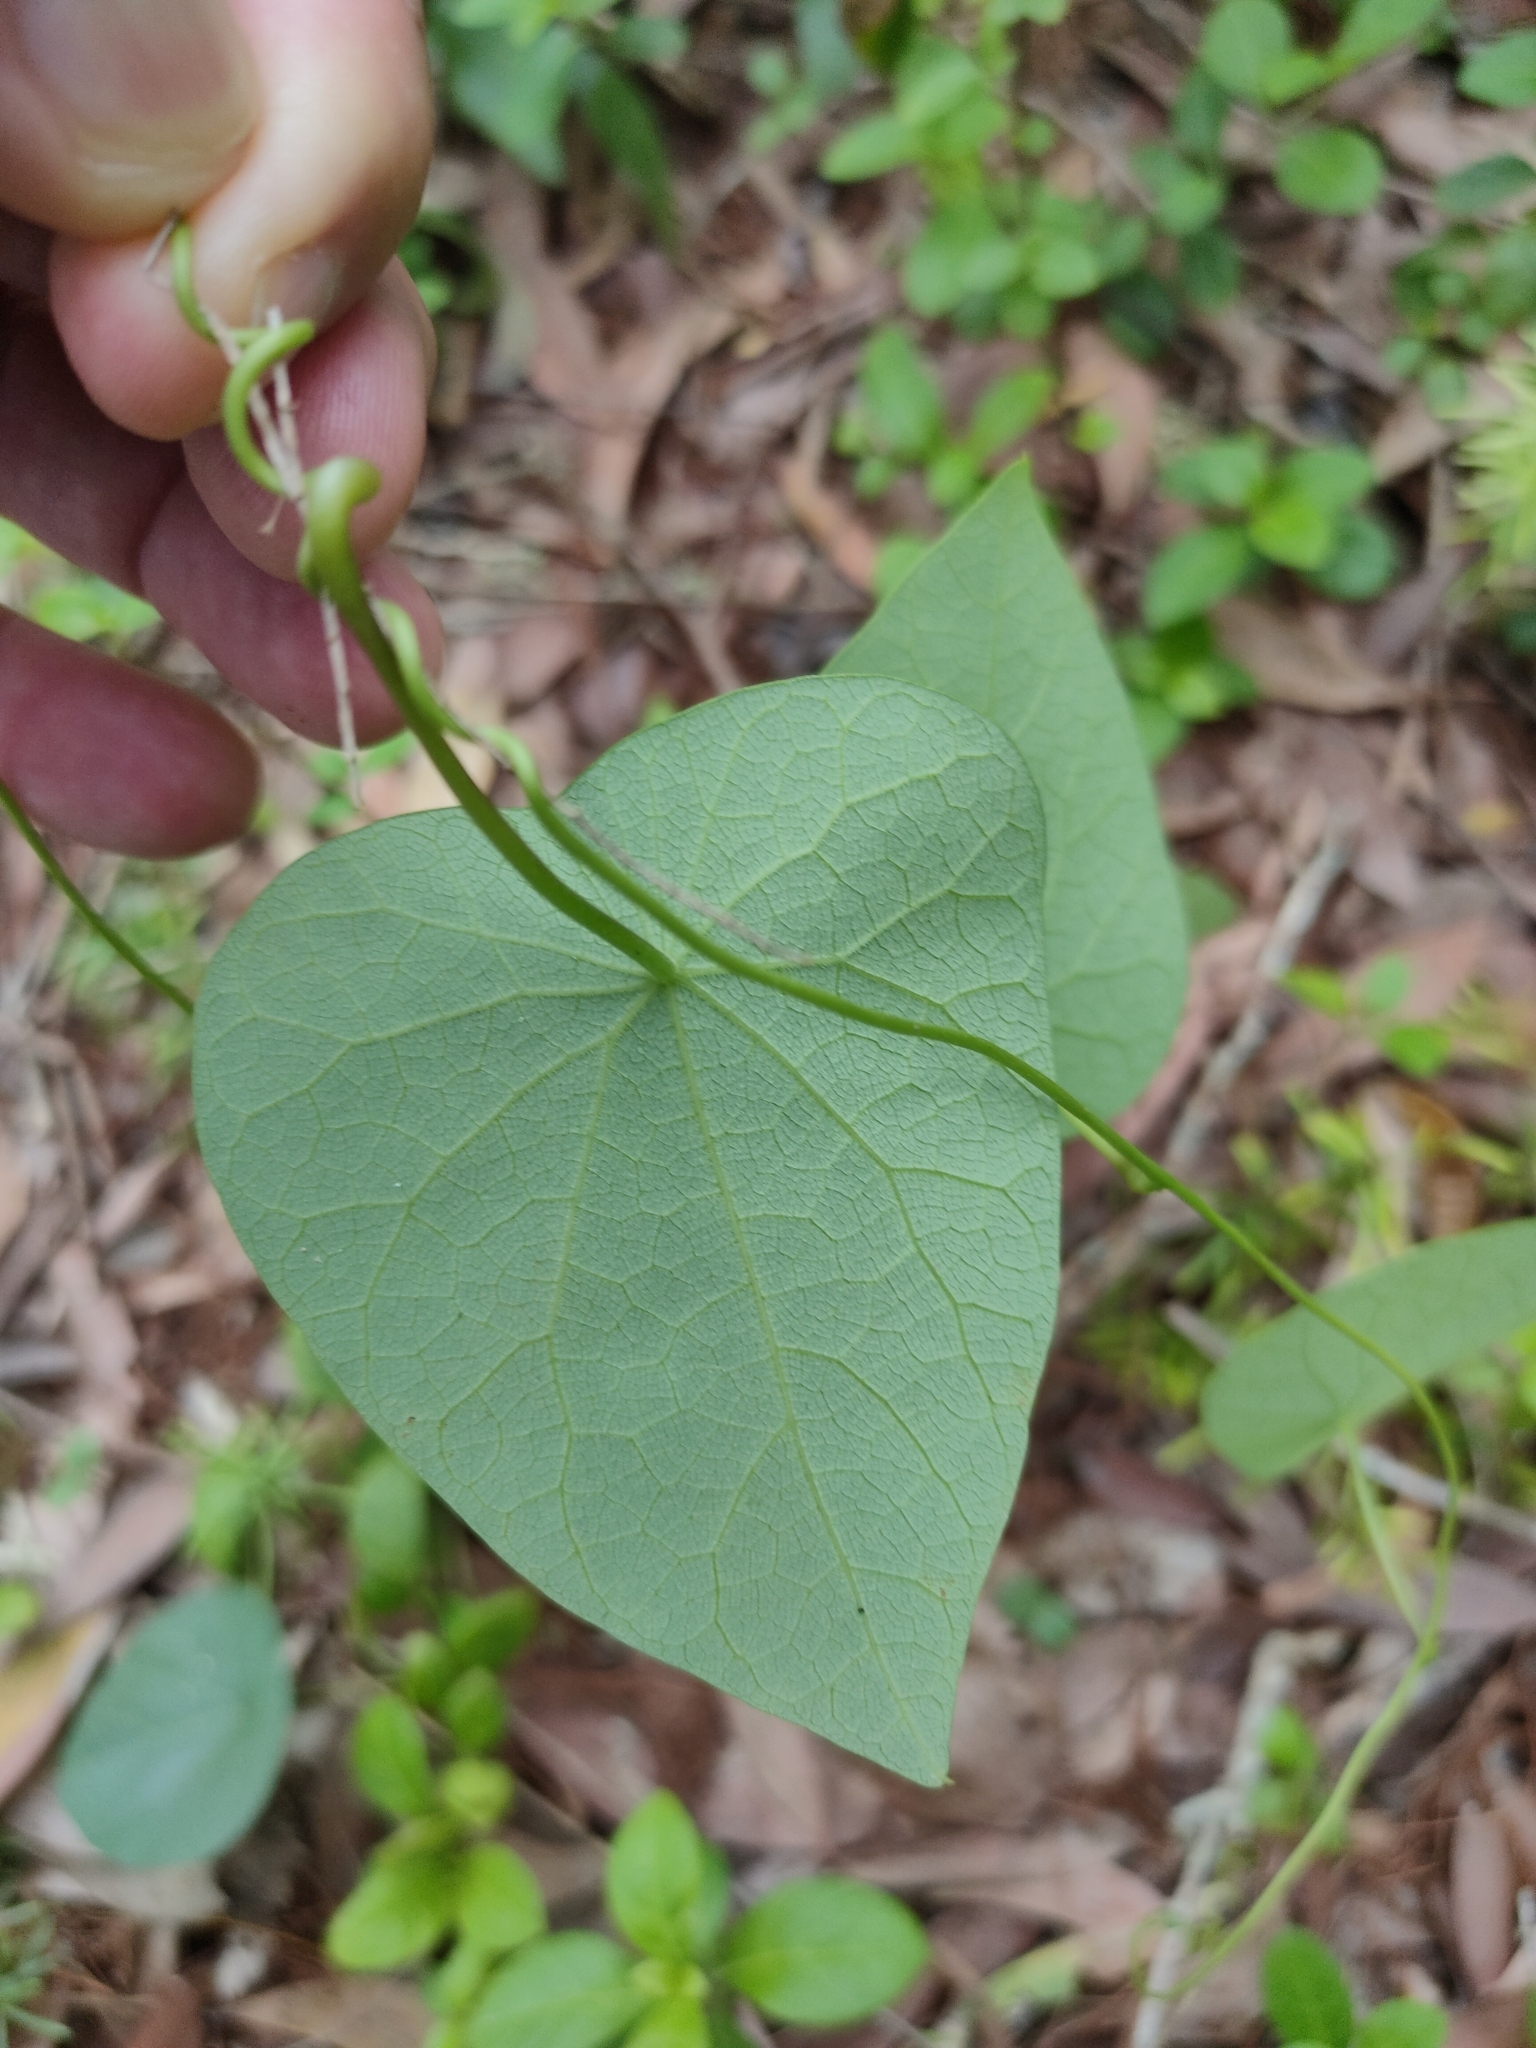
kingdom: Plantae
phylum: Tracheophyta
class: Magnoliopsida
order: Ranunculales
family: Menispermaceae
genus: Stephania
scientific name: Stephania japonica
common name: Snake vine
